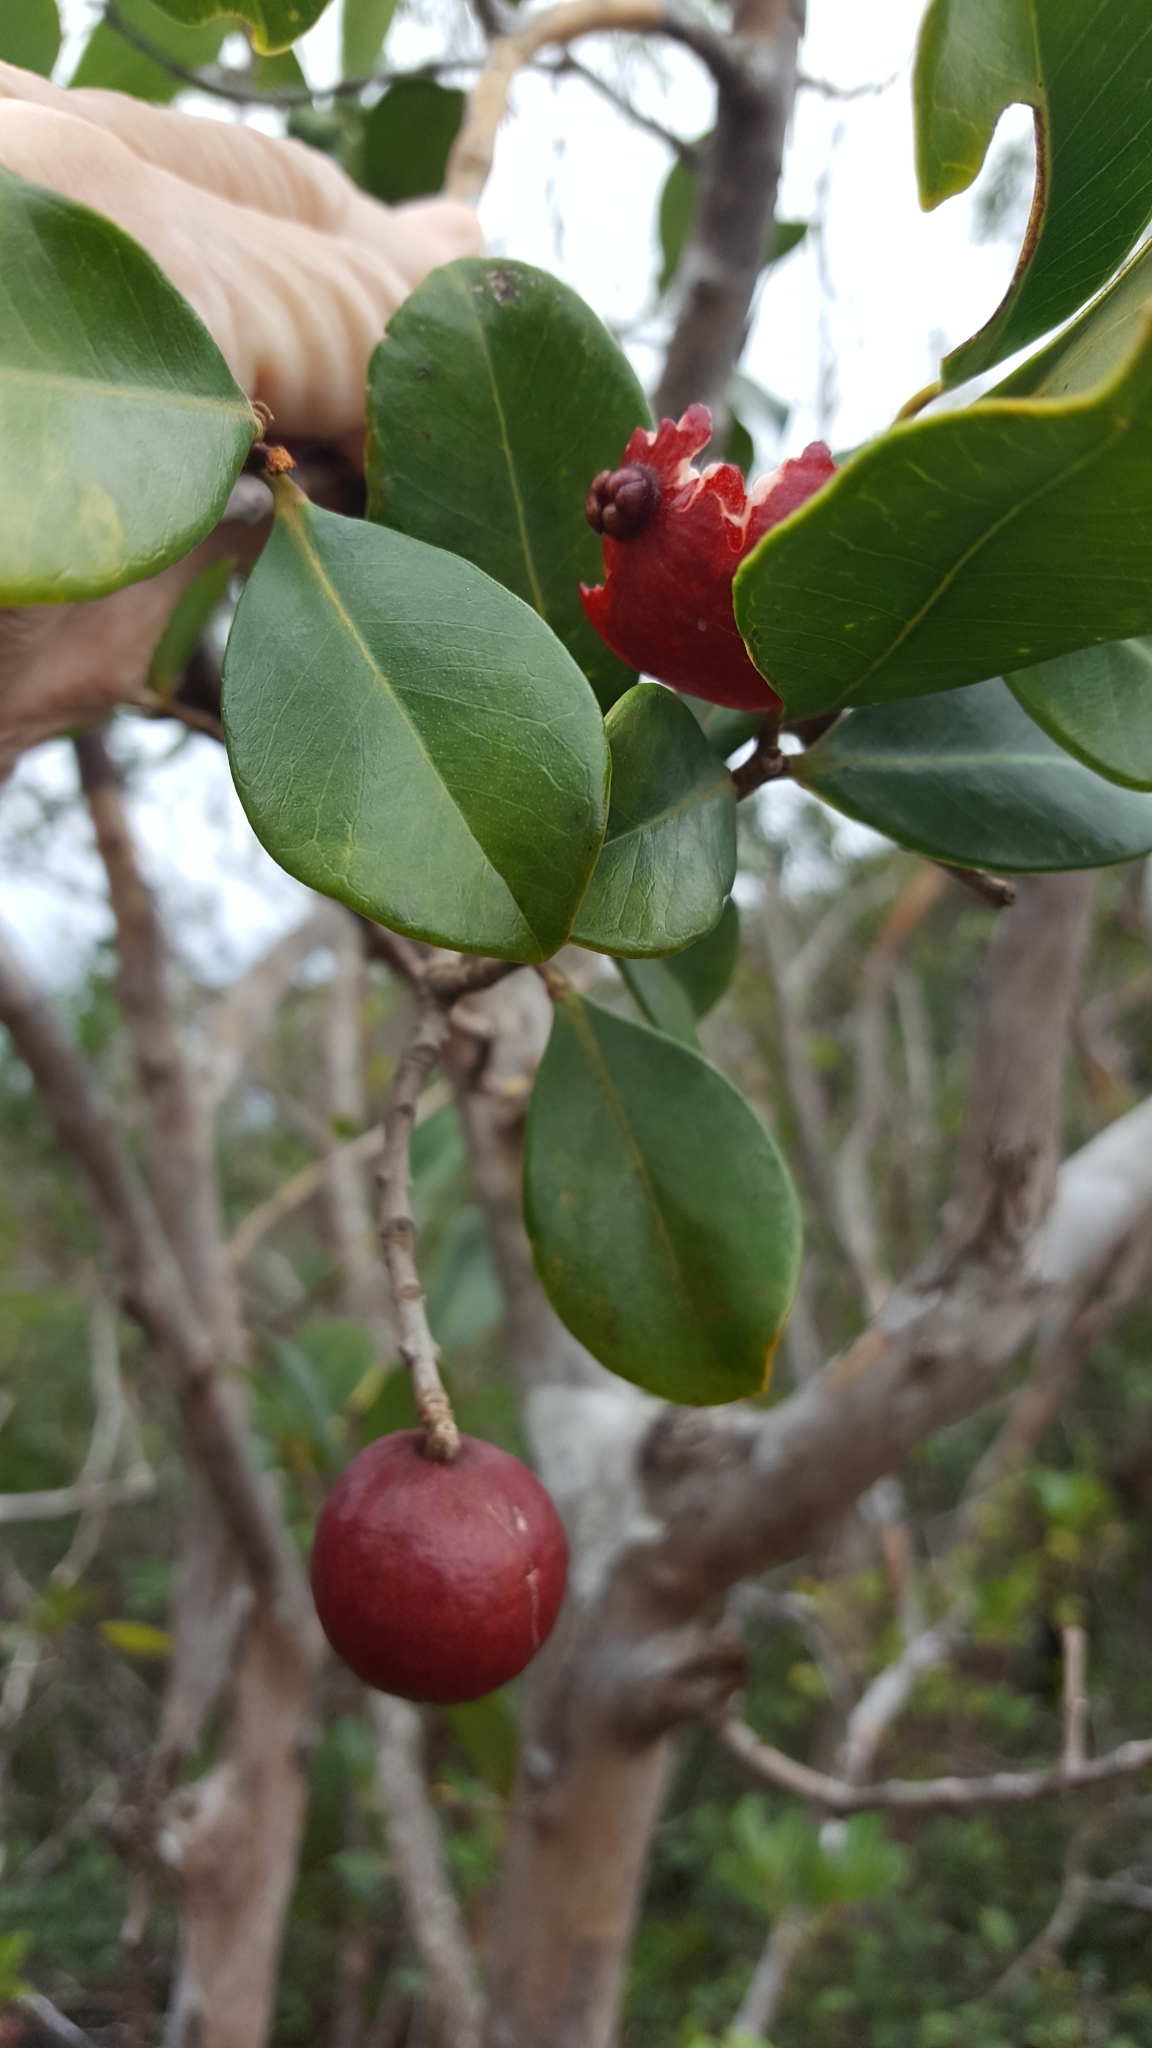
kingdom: Plantae
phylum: Tracheophyta
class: Magnoliopsida
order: Myrtales
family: Myrtaceae
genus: Psidium
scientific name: Psidium cattleianum
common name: Strawberry guava
